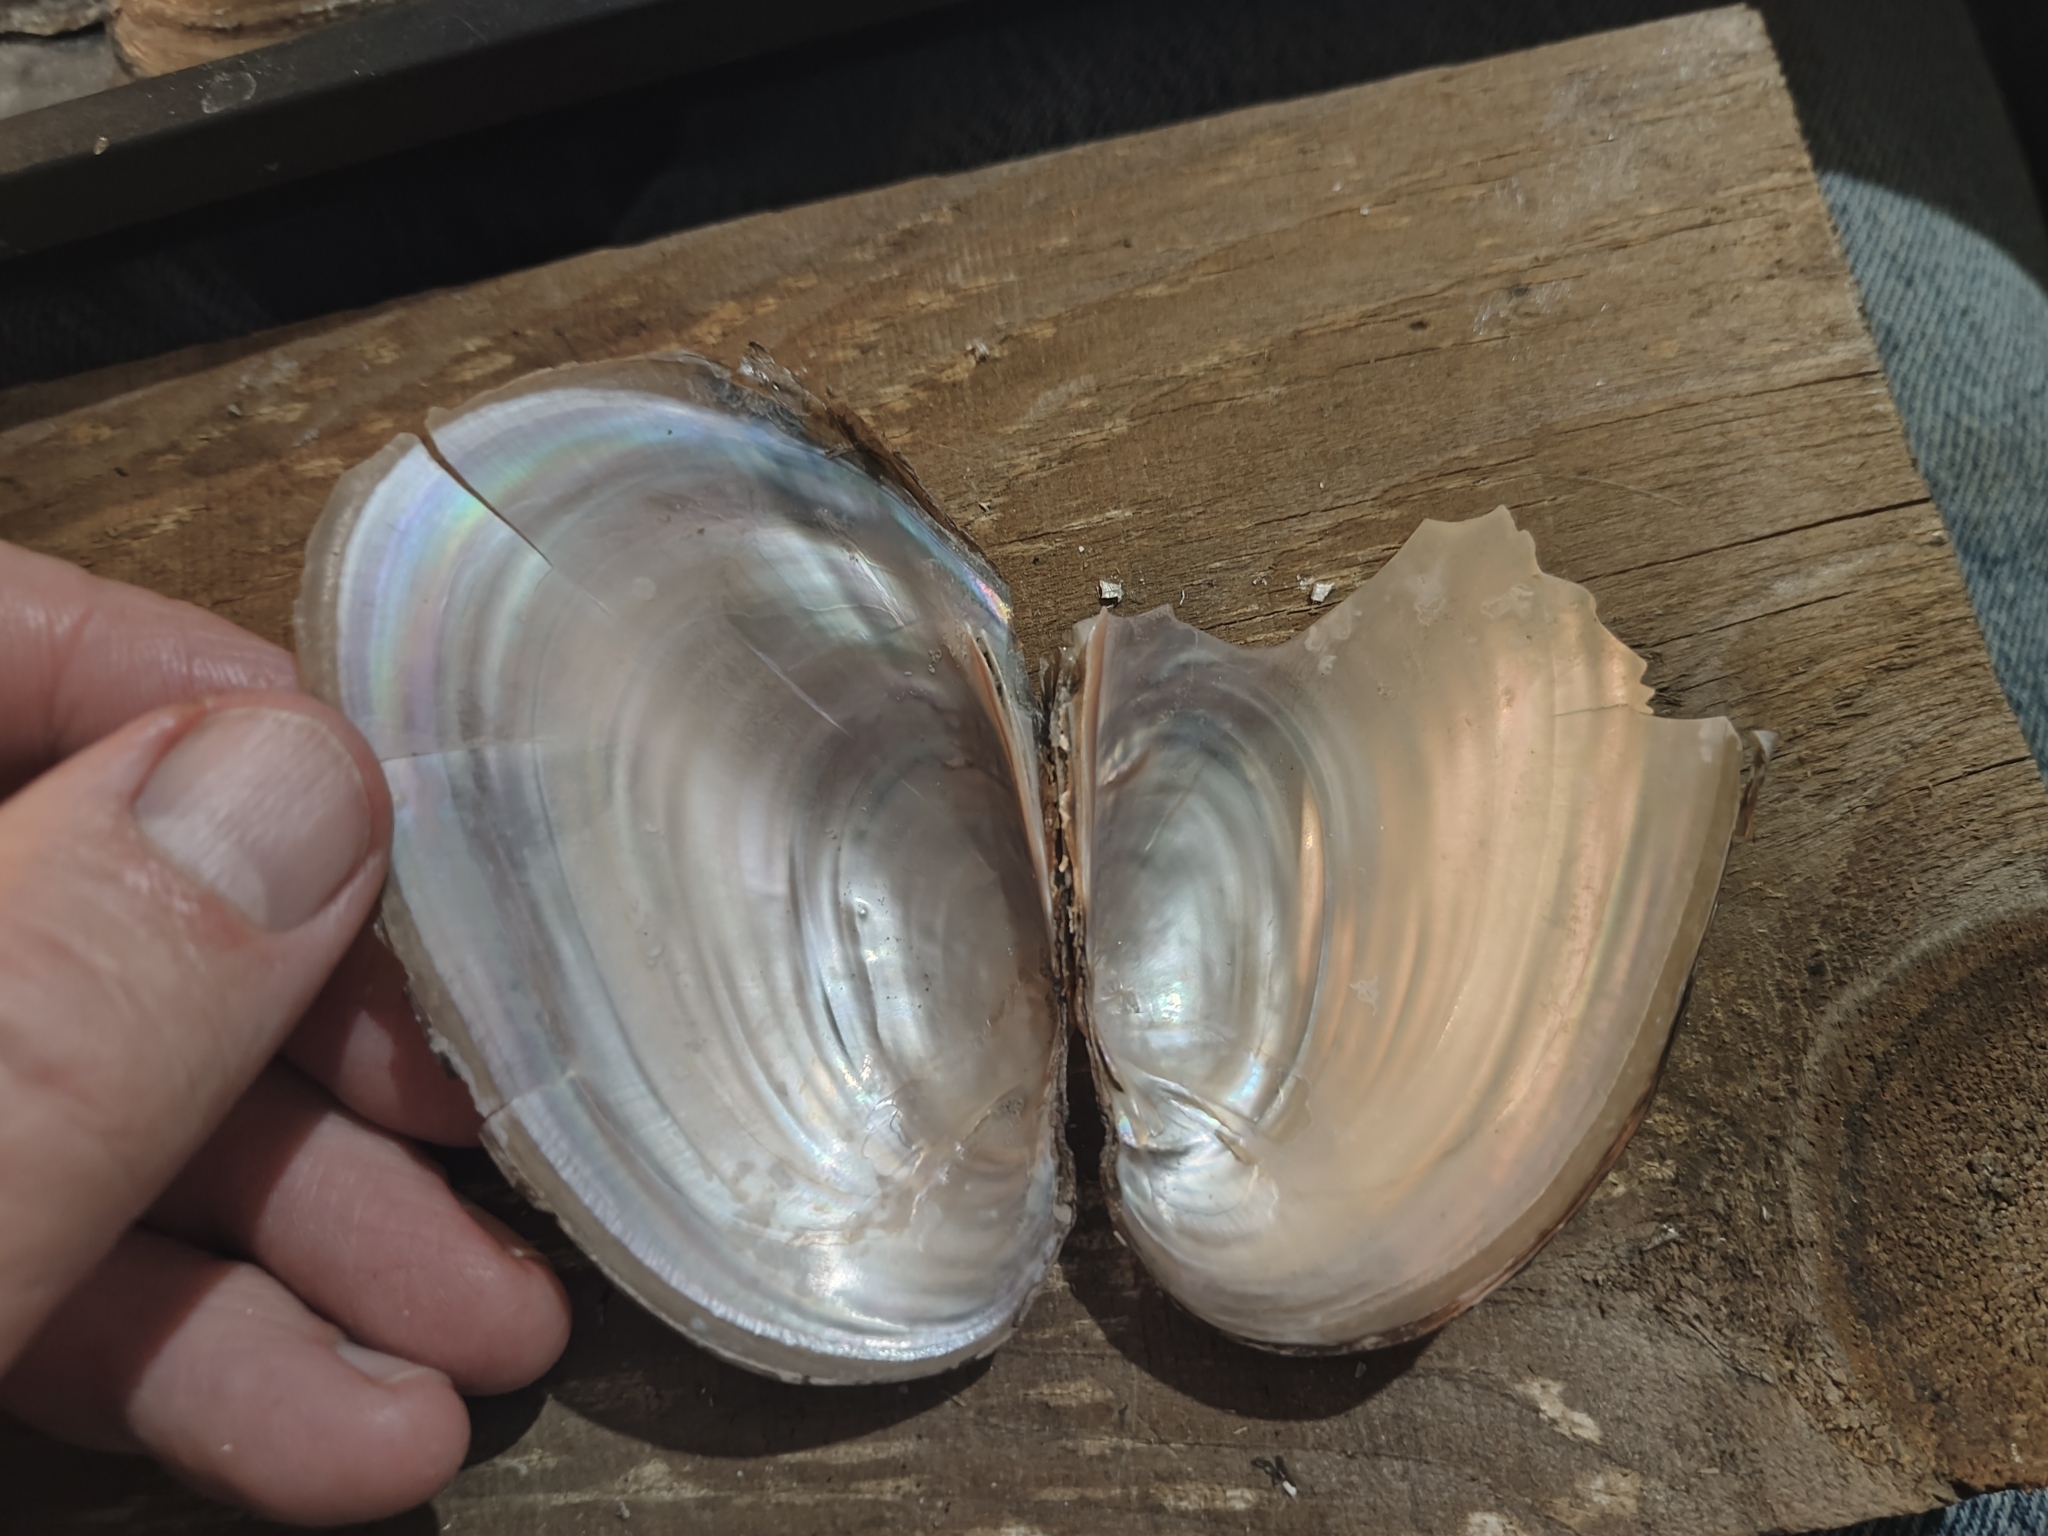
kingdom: Animalia
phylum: Mollusca
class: Bivalvia
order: Unionida
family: Unionidae
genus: Potamilus
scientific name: Potamilus fragilis
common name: Fragile papershell
